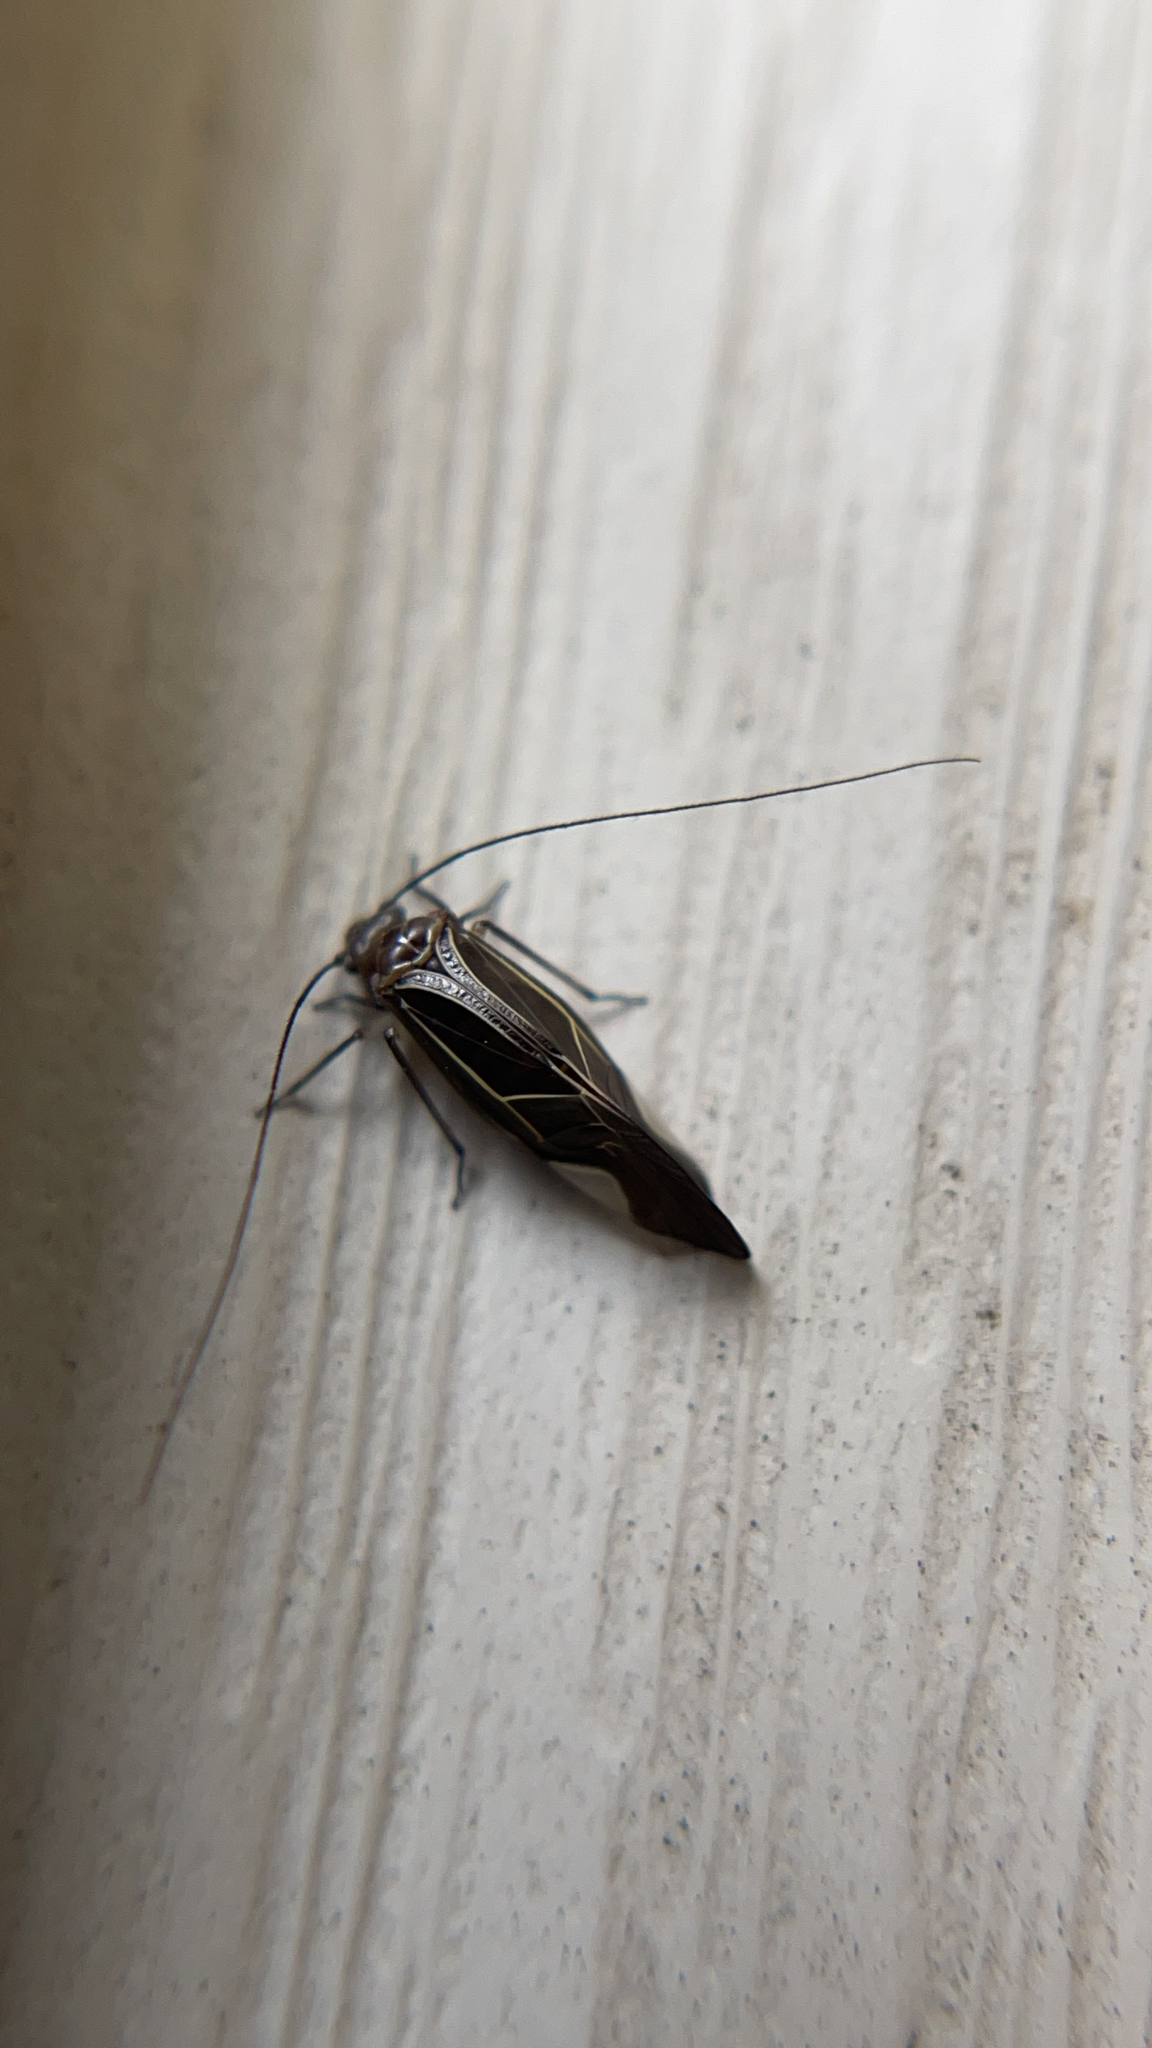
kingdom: Animalia
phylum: Arthropoda
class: Insecta
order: Psocodea
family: Psocidae
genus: Cerastipsocus
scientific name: Cerastipsocus venosus
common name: Tree cattle
